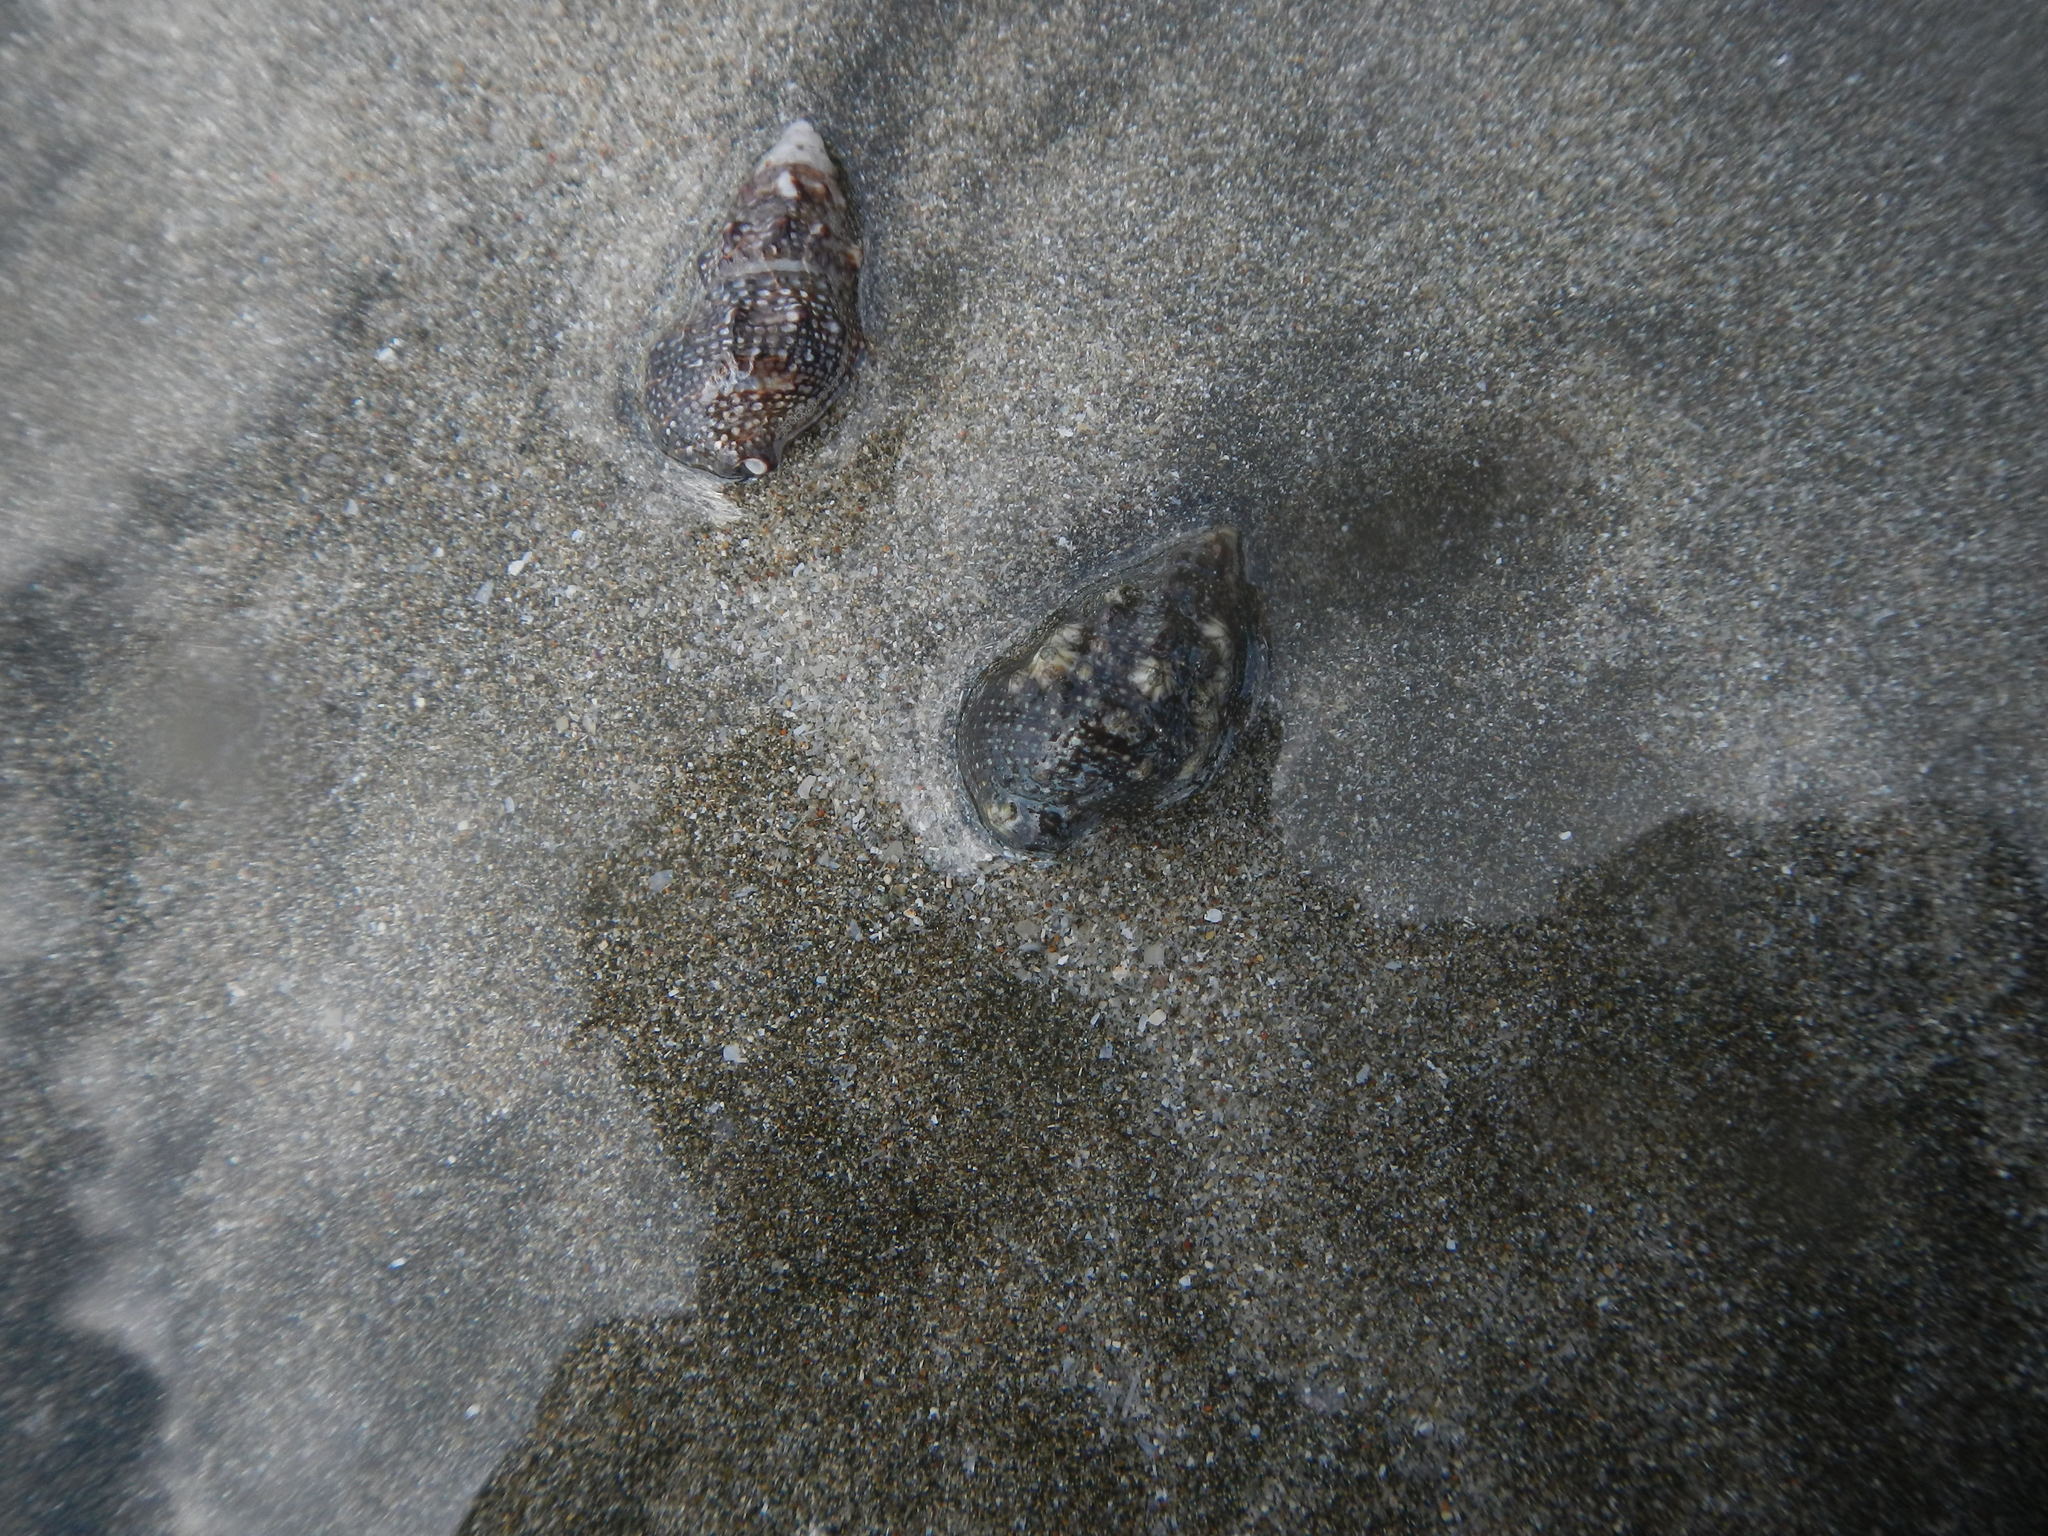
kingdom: Animalia
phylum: Mollusca
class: Gastropoda
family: Cerithiidae
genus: Cerithium
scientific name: Cerithium stercusmuscarum
